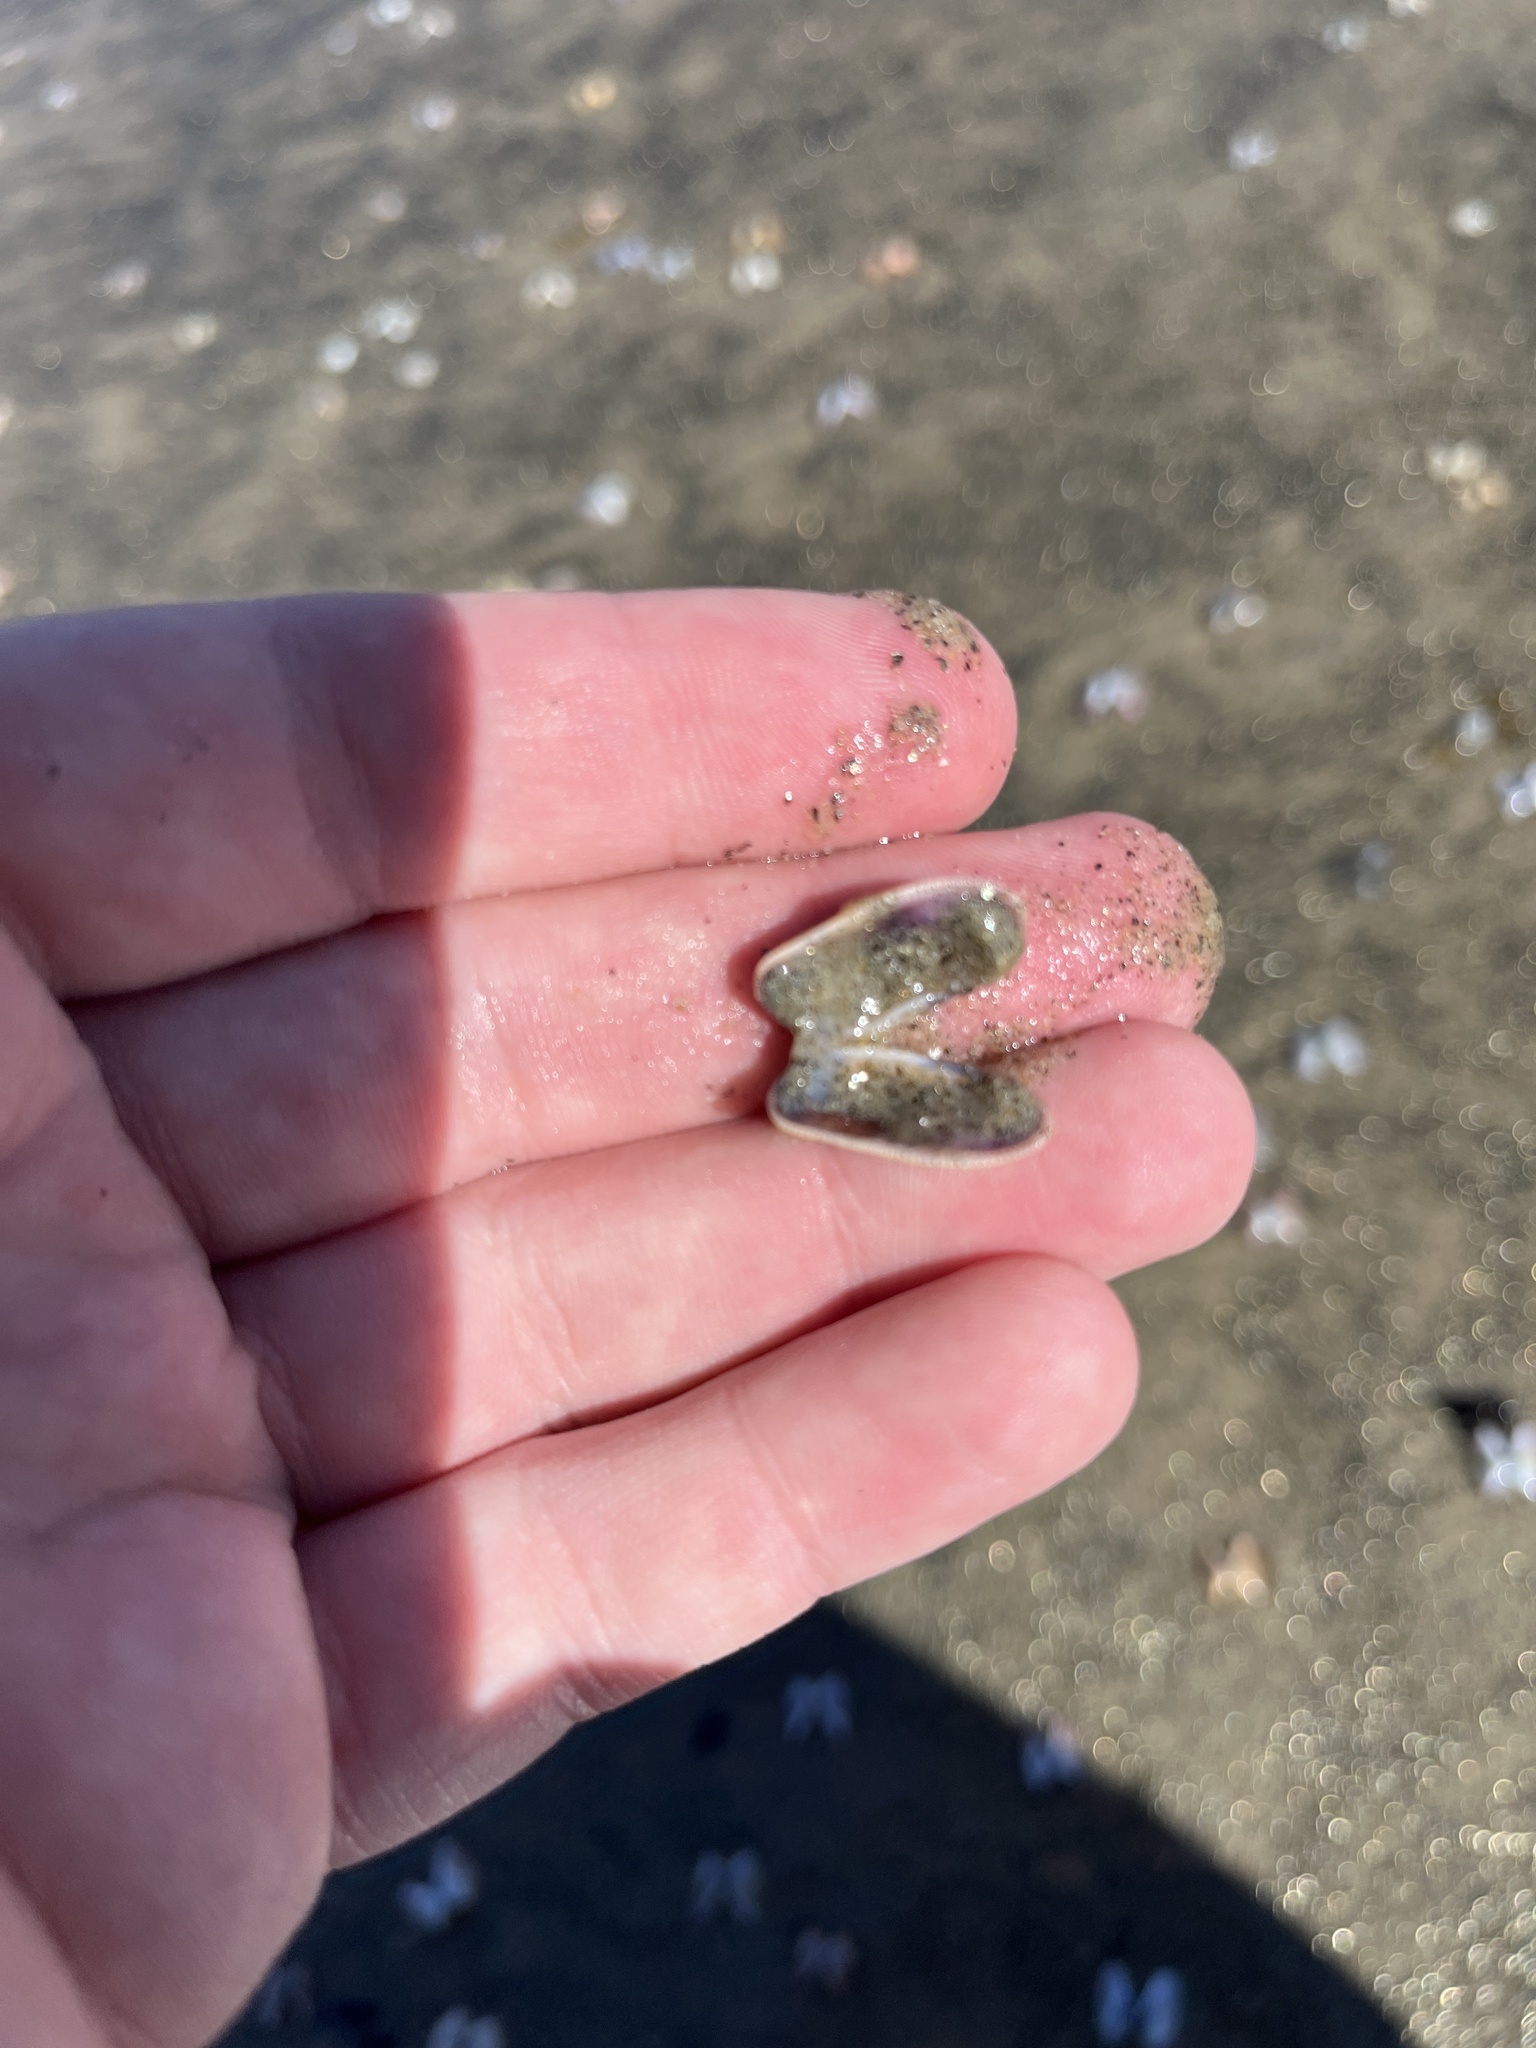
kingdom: Animalia
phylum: Mollusca
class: Bivalvia
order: Cardiida
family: Donacidae
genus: Donax
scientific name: Donax gouldii
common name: Gould beanclam
